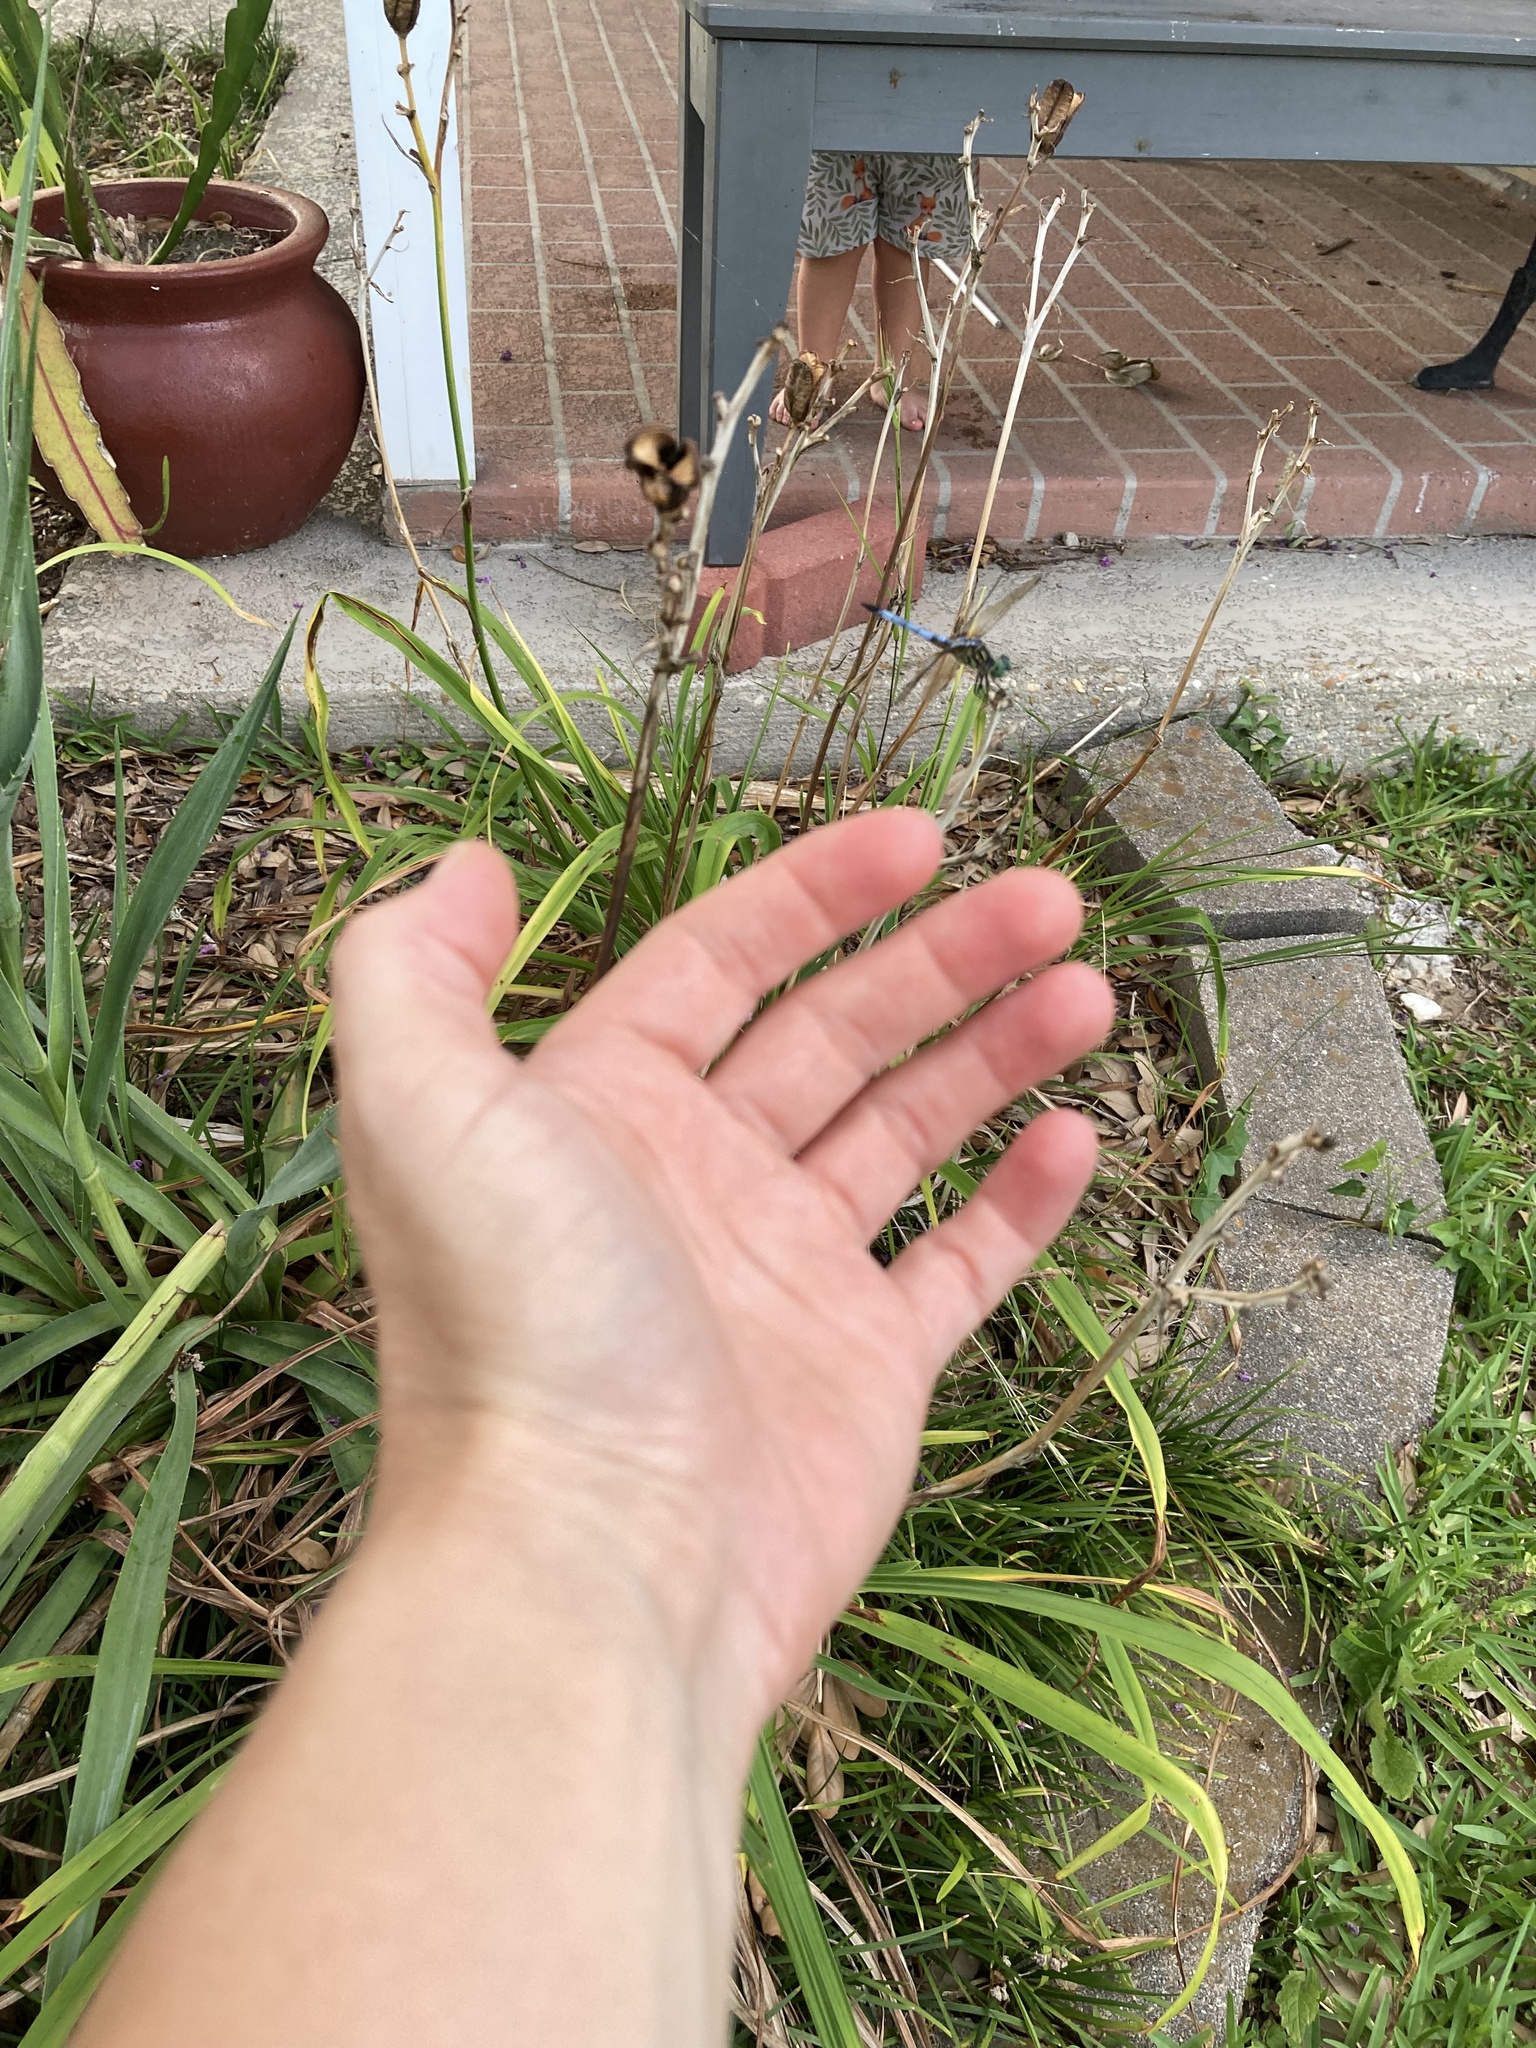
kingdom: Animalia
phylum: Arthropoda
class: Insecta
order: Odonata
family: Libellulidae
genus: Pachydiplax
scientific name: Pachydiplax longipennis
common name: Blue dasher
